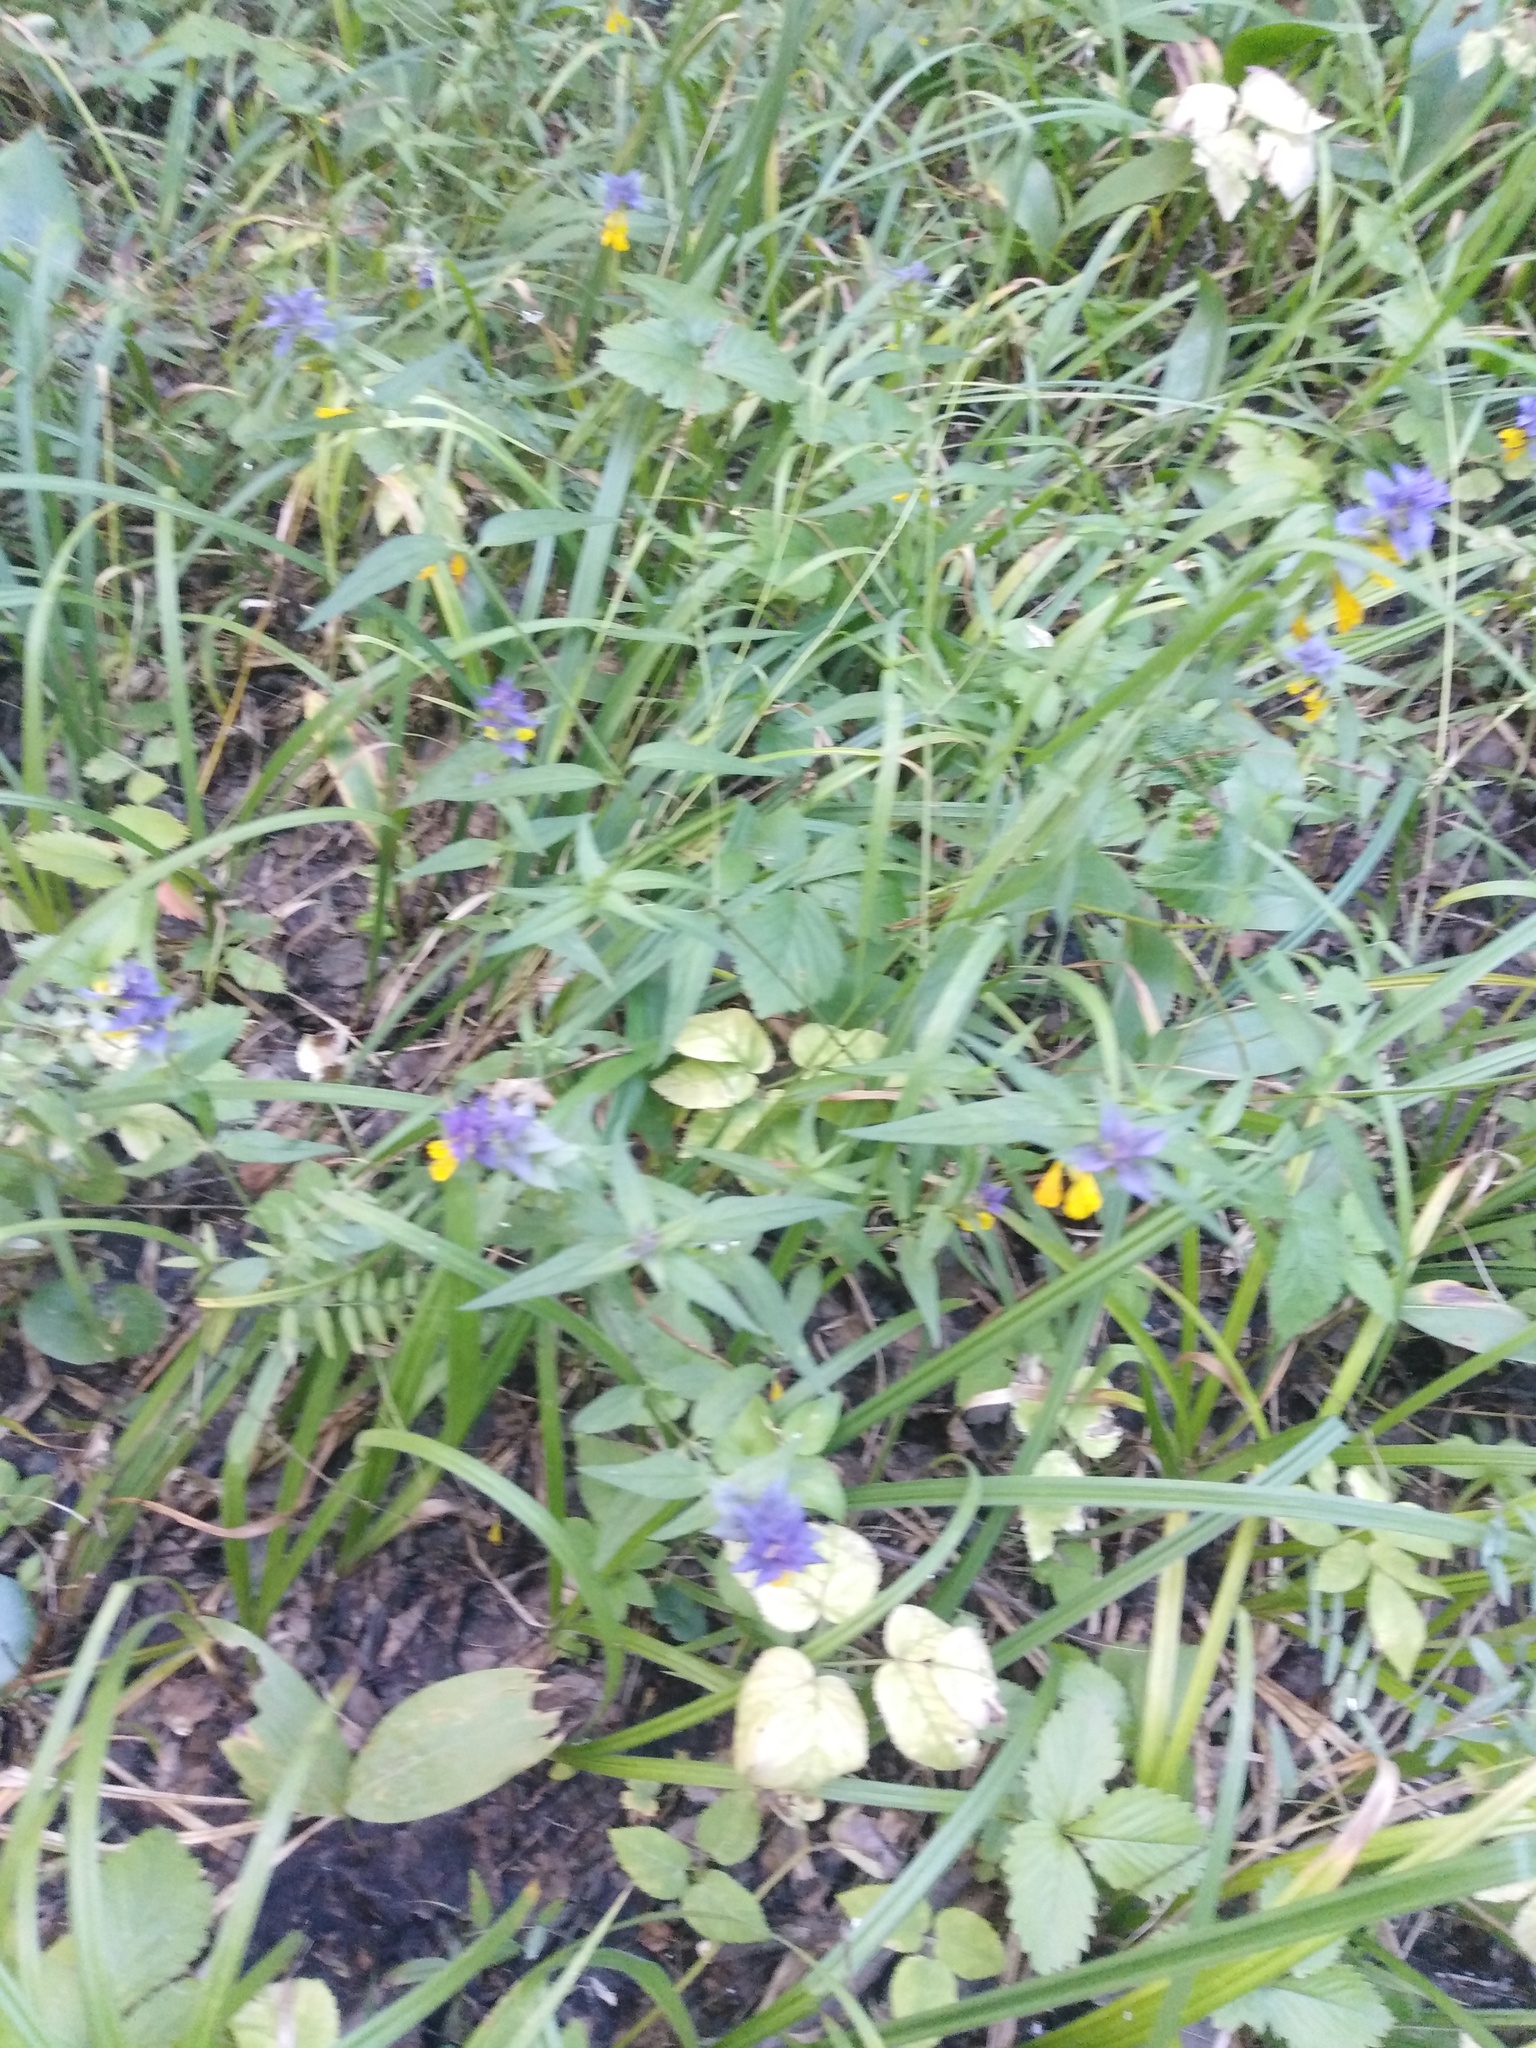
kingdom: Plantae
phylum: Tracheophyta
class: Magnoliopsida
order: Lamiales
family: Orobanchaceae
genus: Melampyrum
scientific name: Melampyrum nemorosum
